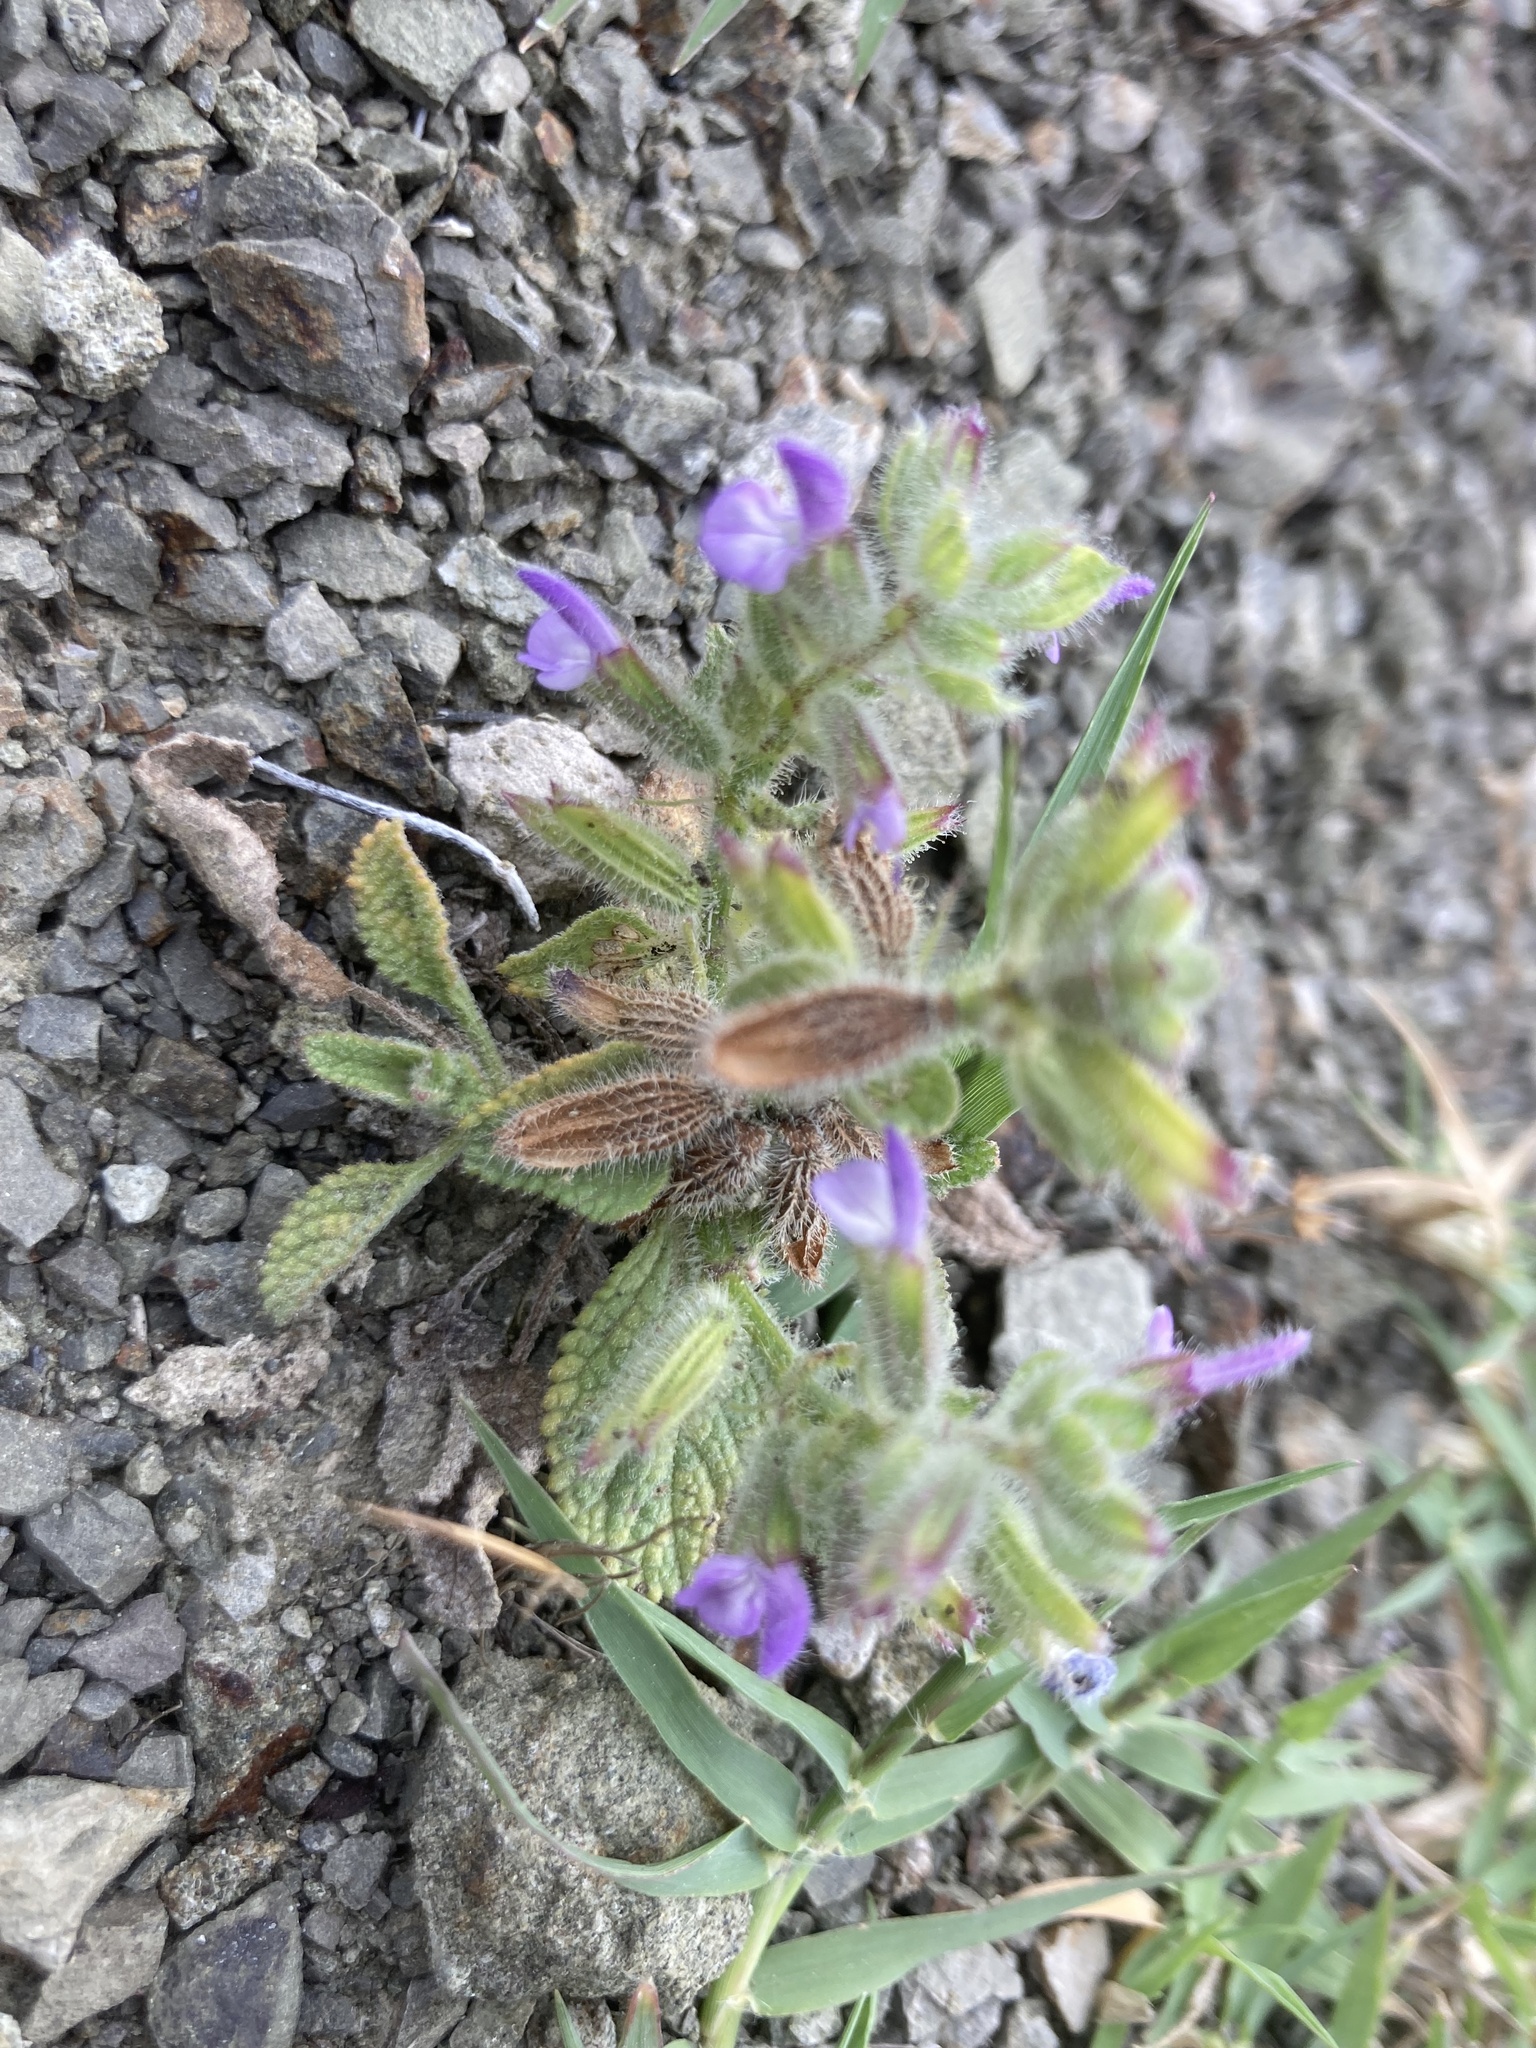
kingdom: Plantae
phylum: Tracheophyta
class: Magnoliopsida
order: Lamiales
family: Lamiaceae
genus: Salvia
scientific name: Salvia viridis
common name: Annual clary
